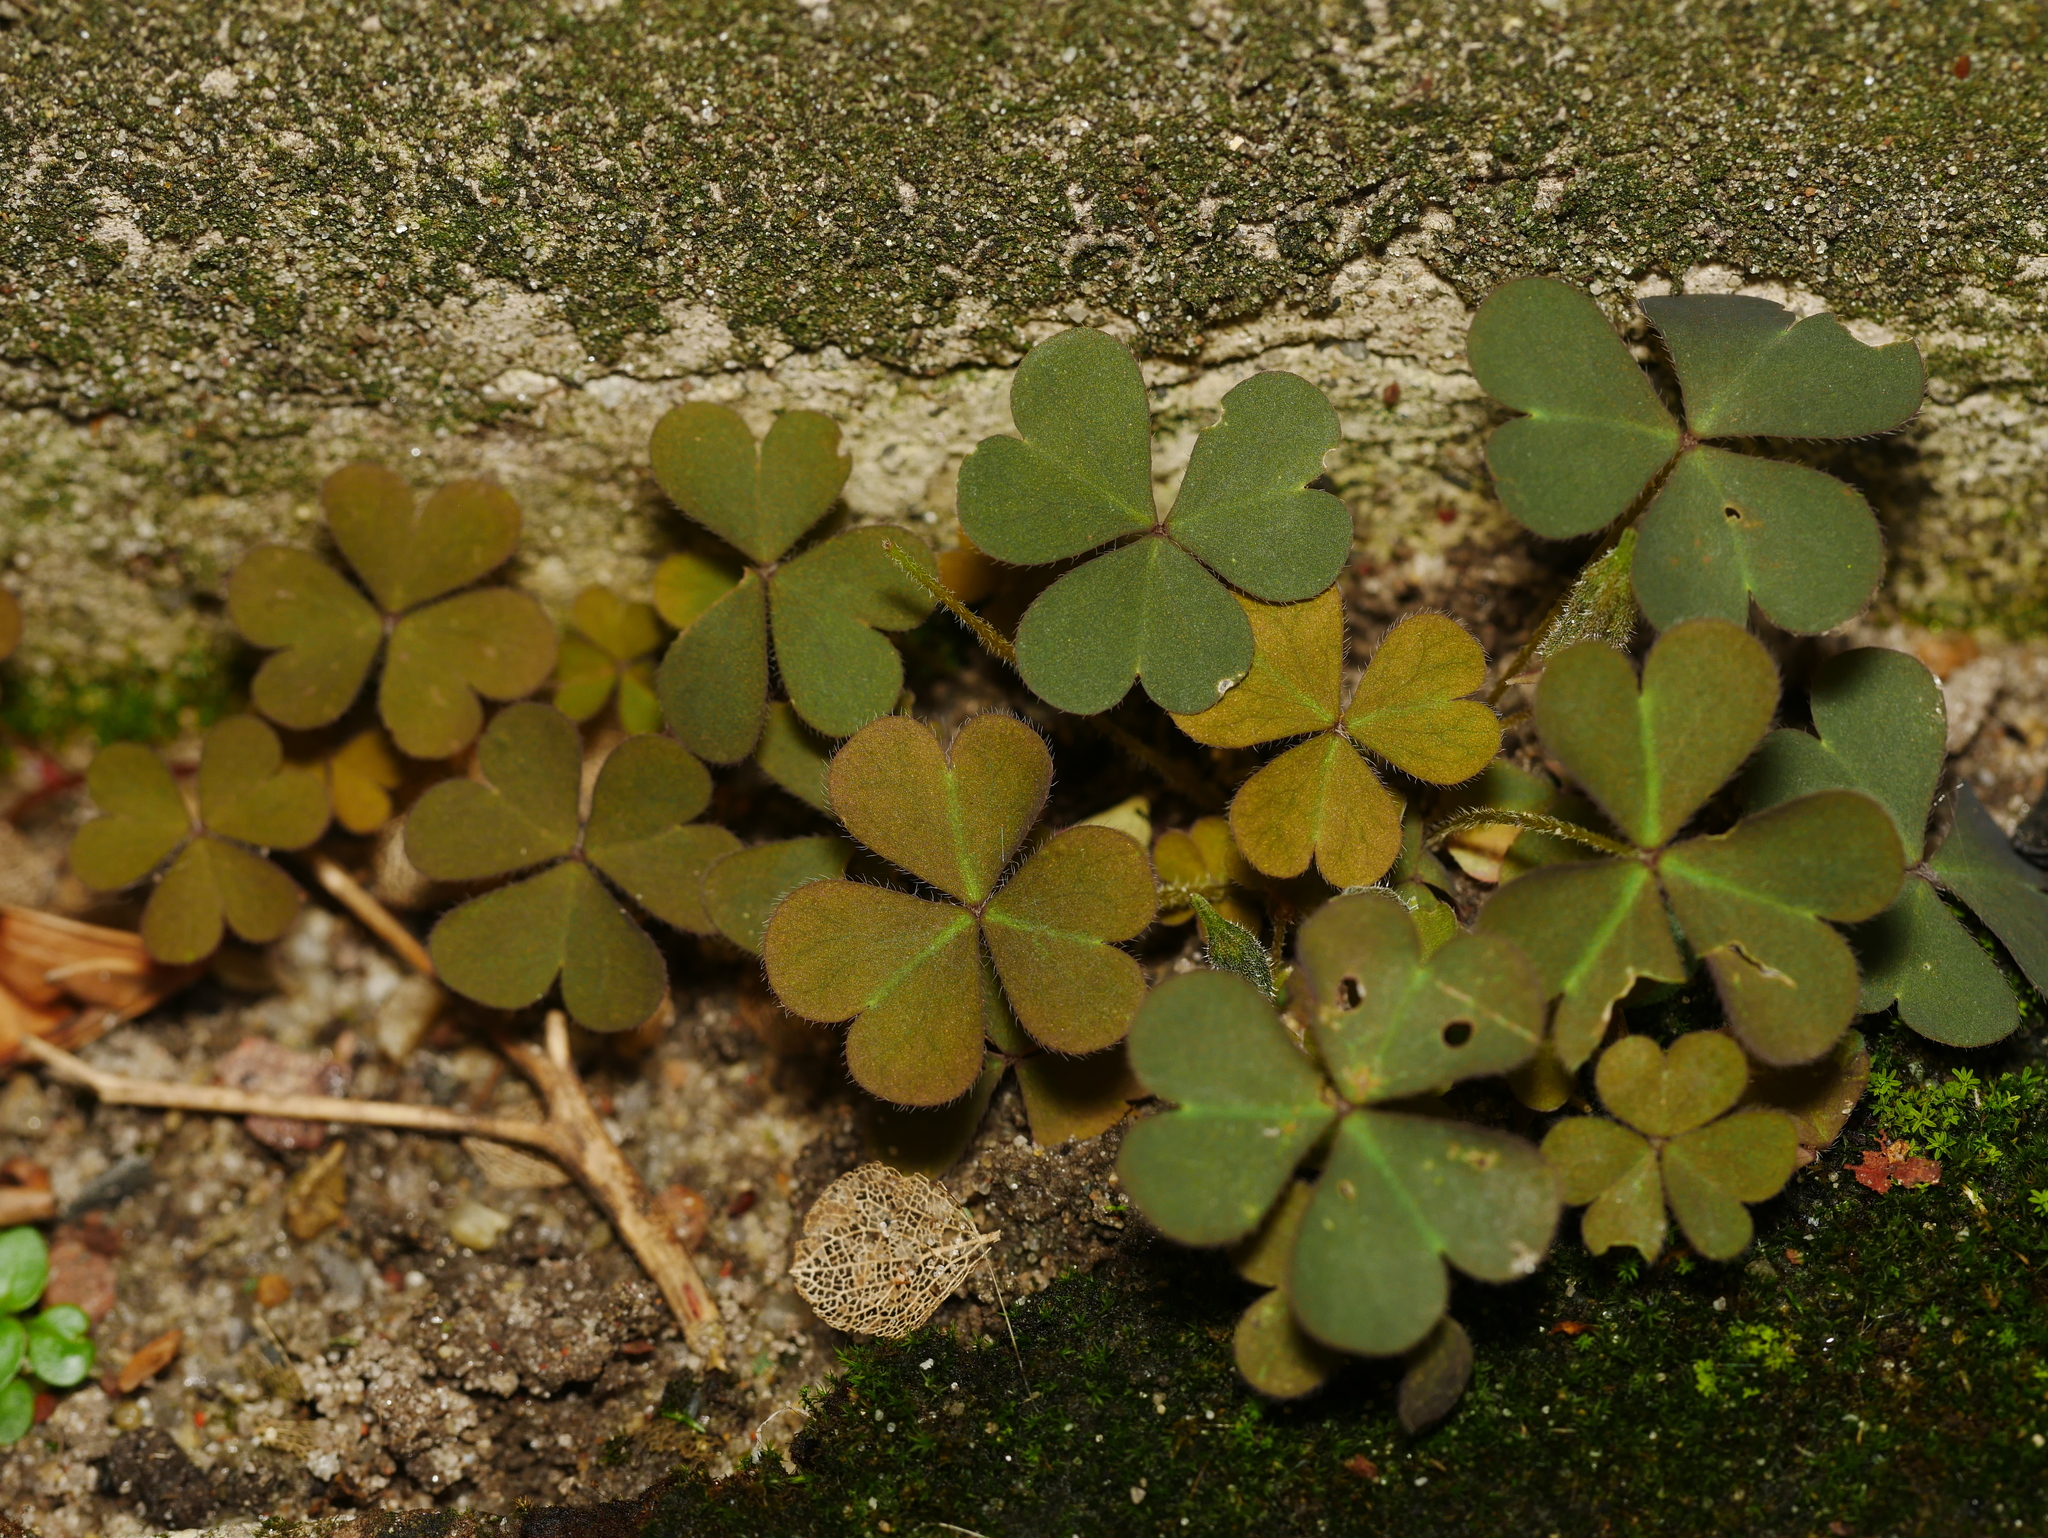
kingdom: Plantae
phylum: Tracheophyta
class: Magnoliopsida
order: Oxalidales
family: Oxalidaceae
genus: Oxalis
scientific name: Oxalis corniculata
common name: Procumbent yellow-sorrel
